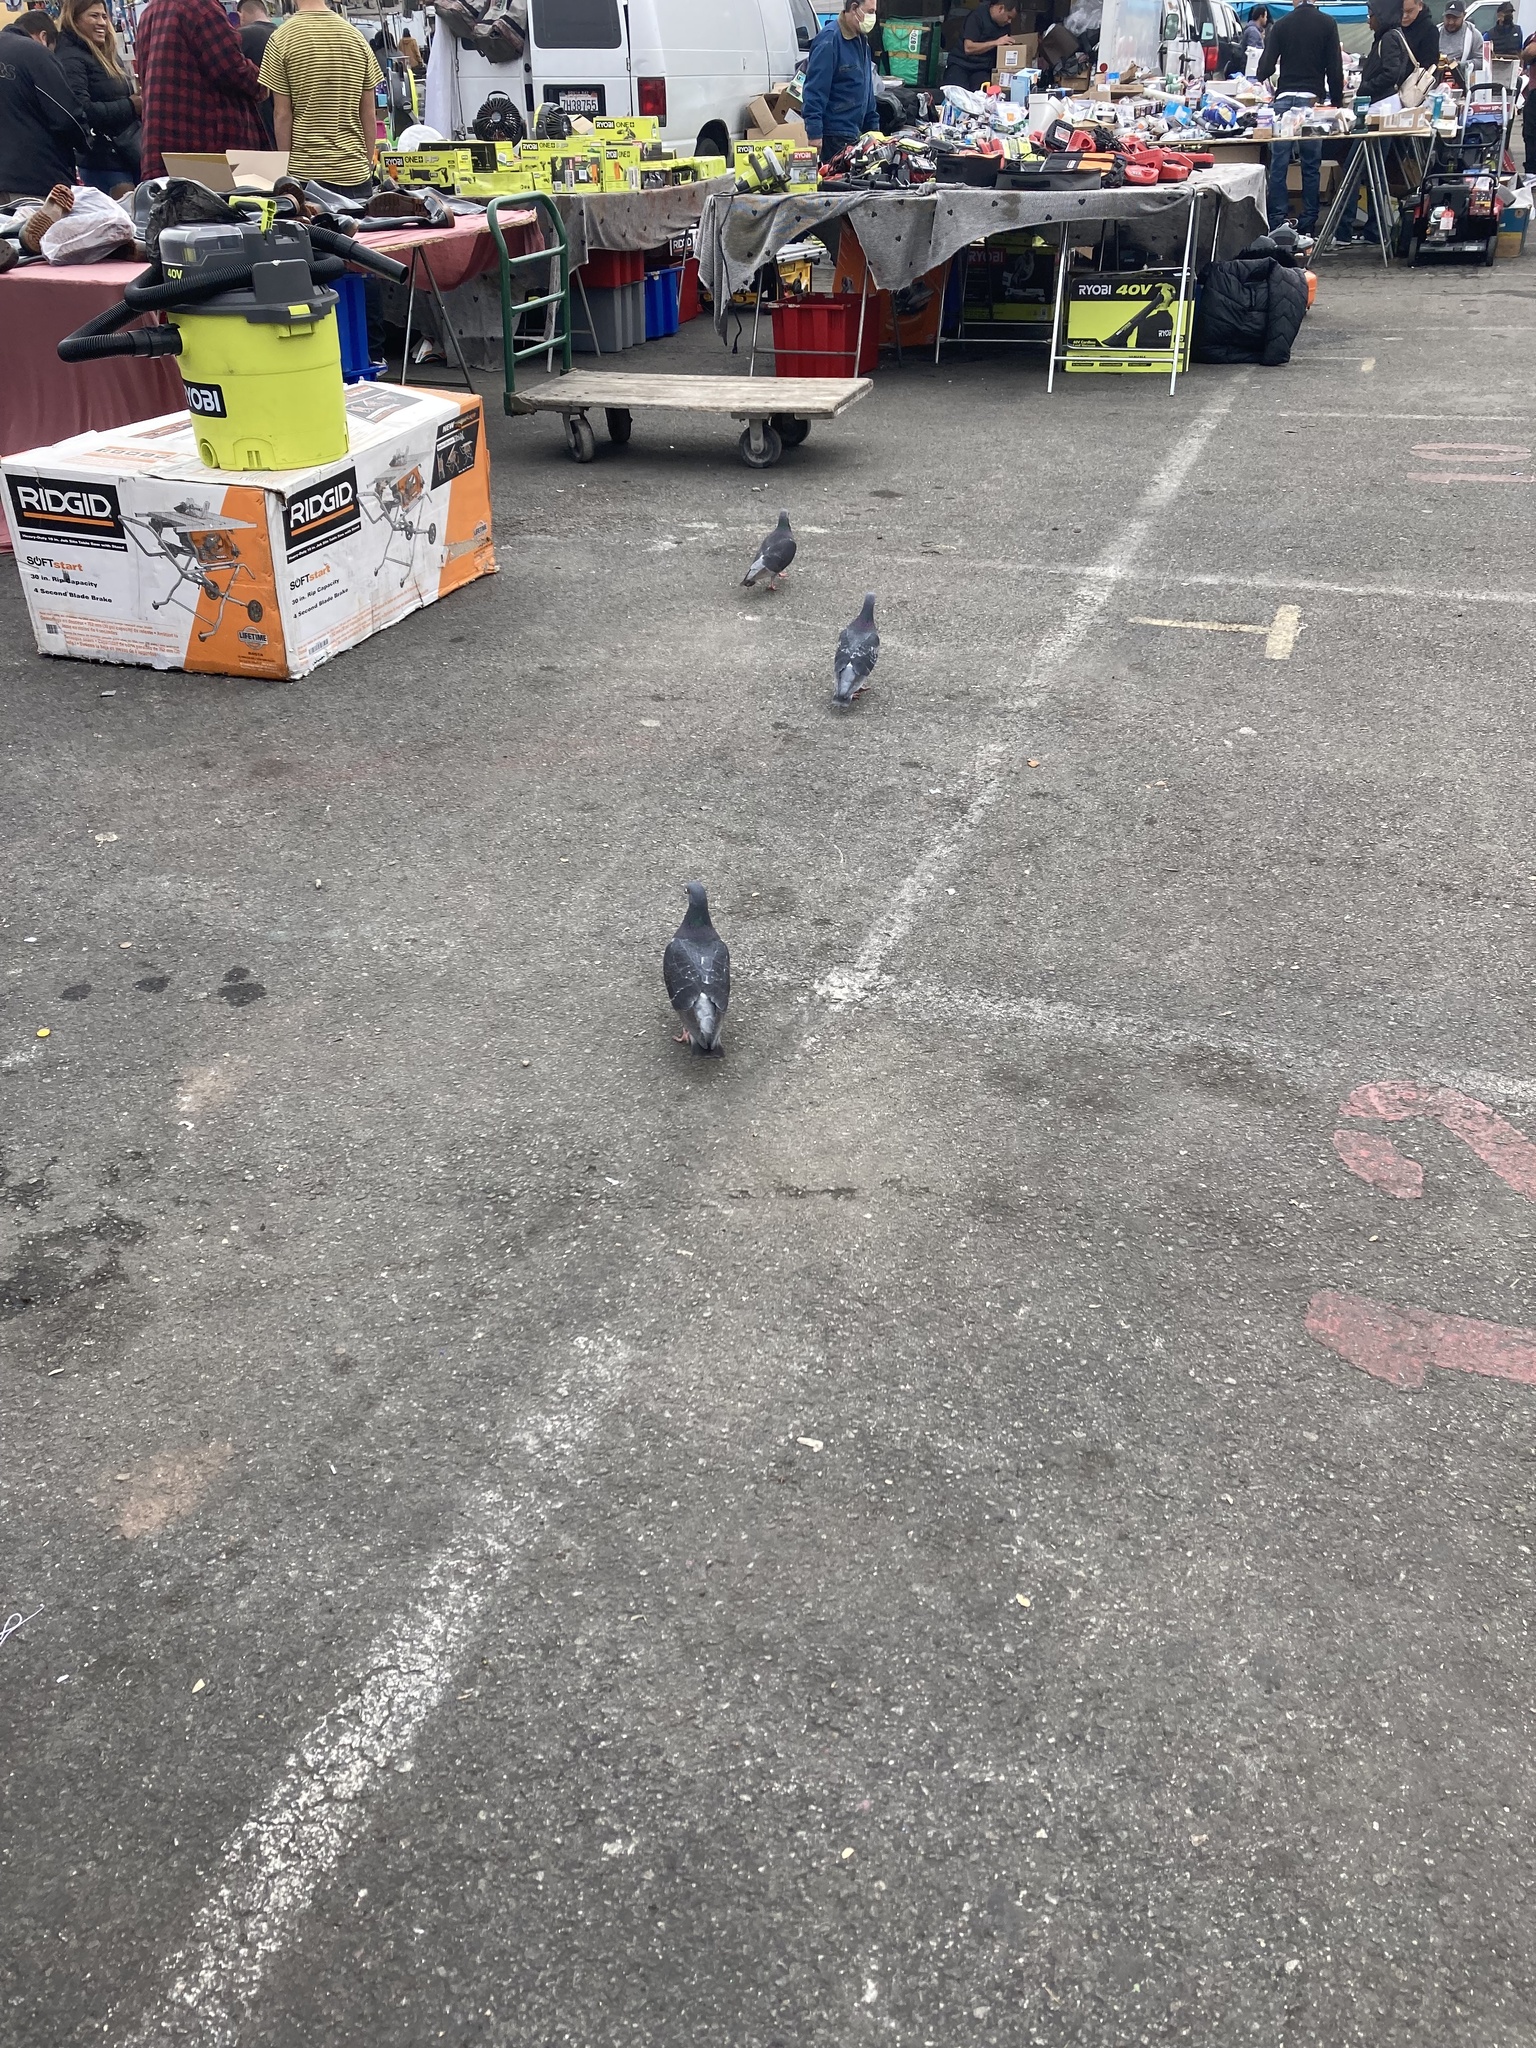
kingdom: Animalia
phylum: Chordata
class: Aves
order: Columbiformes
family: Columbidae
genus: Columba
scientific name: Columba livia
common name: Rock pigeon
